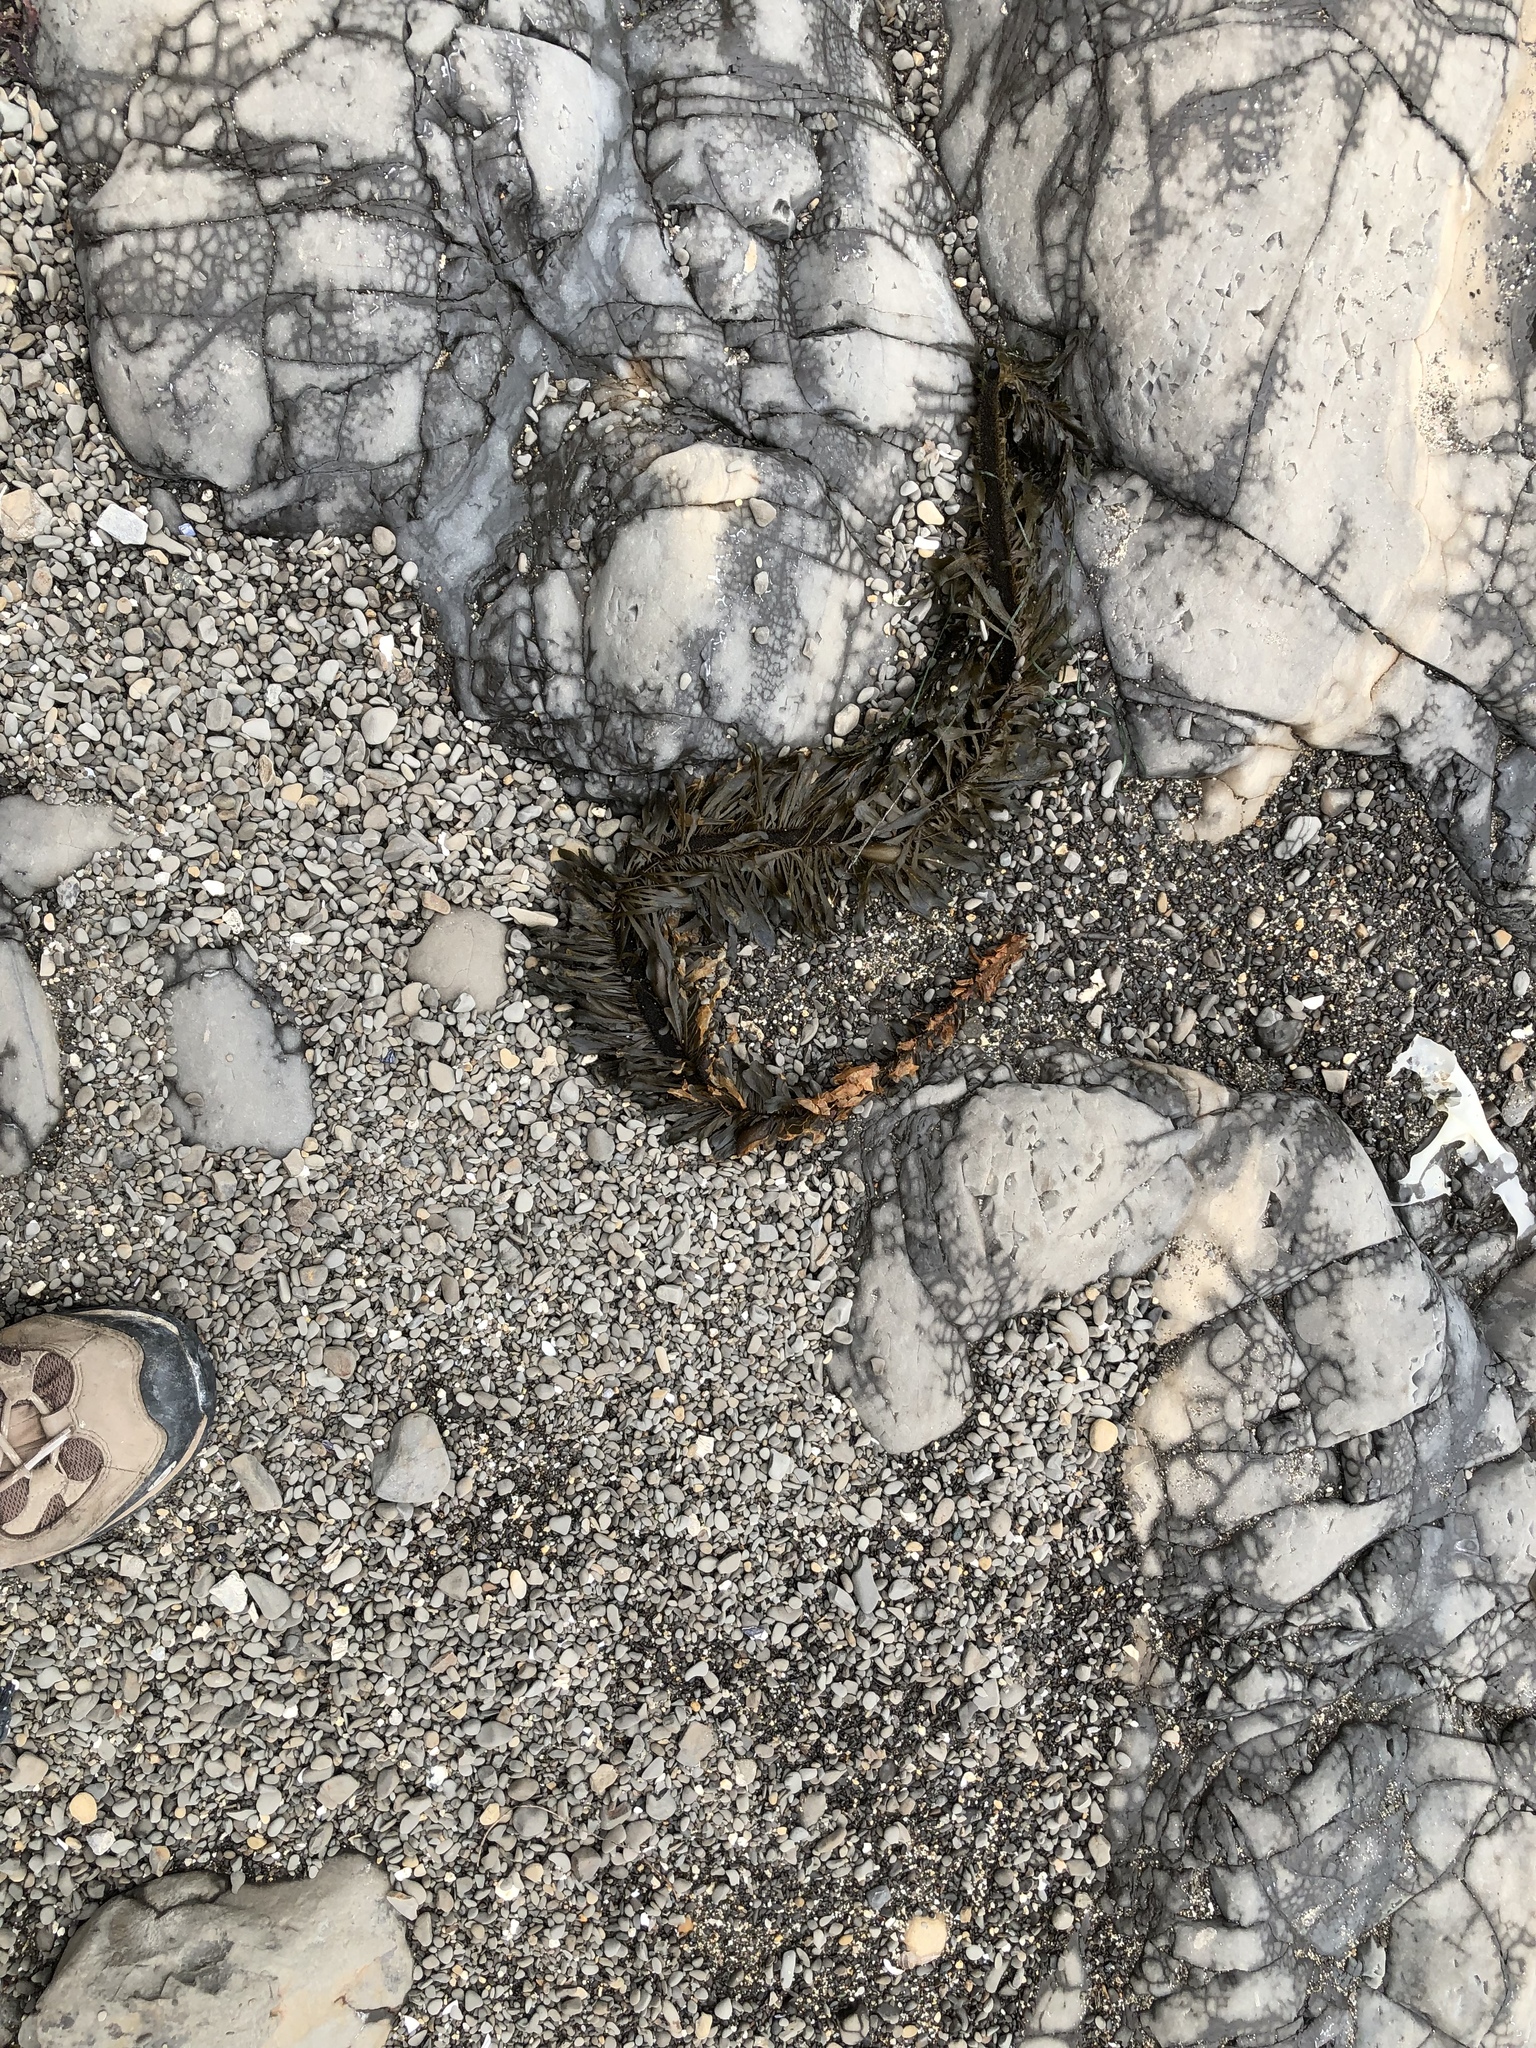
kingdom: Chromista
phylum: Ochrophyta
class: Phaeophyceae
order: Laminariales
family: Lessoniaceae
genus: Egregia
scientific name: Egregia menziesii
